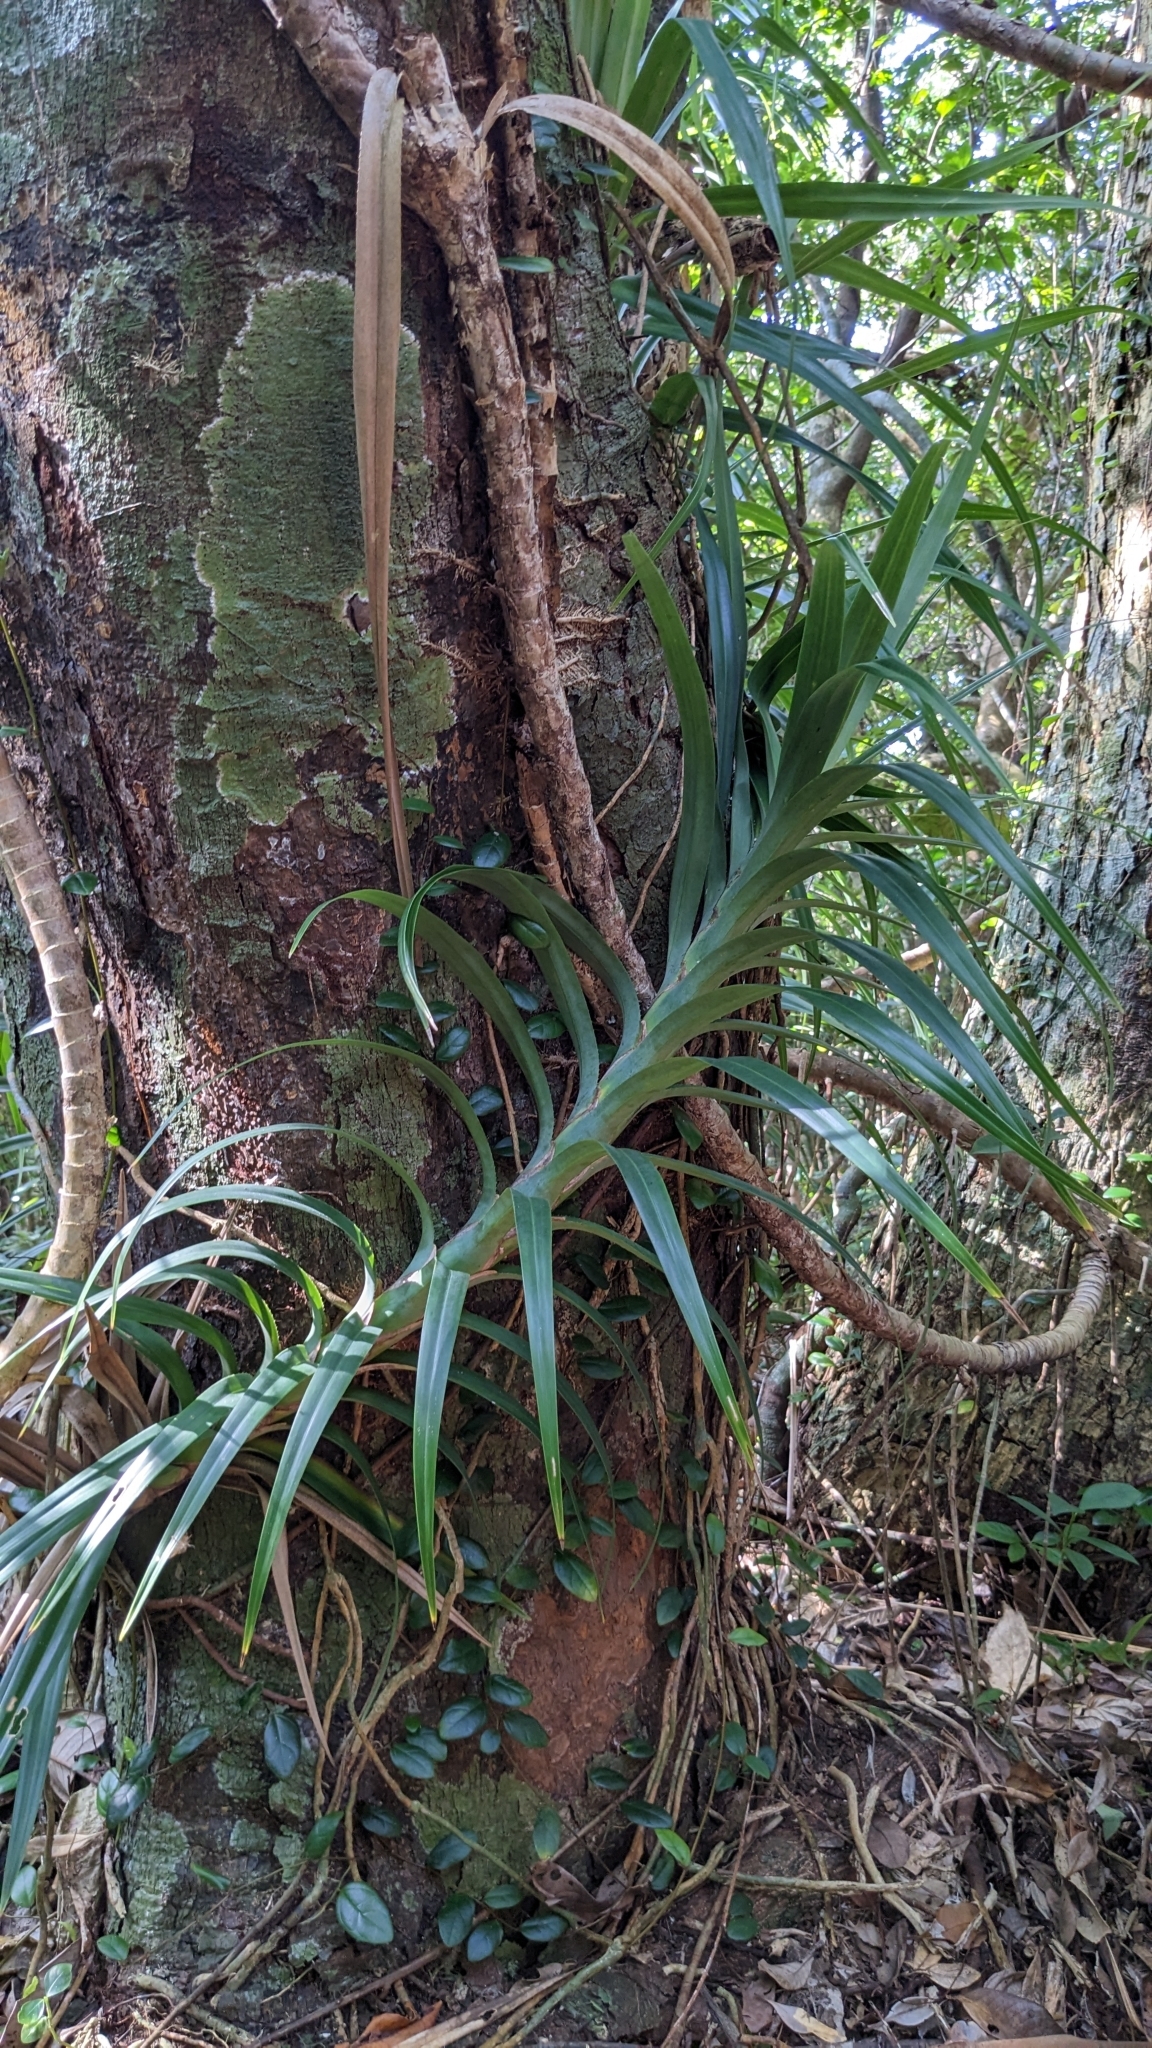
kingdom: Plantae
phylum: Tracheophyta
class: Liliopsida
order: Pandanales
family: Pandanaceae
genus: Freycinetia
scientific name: Freycinetia formosana
